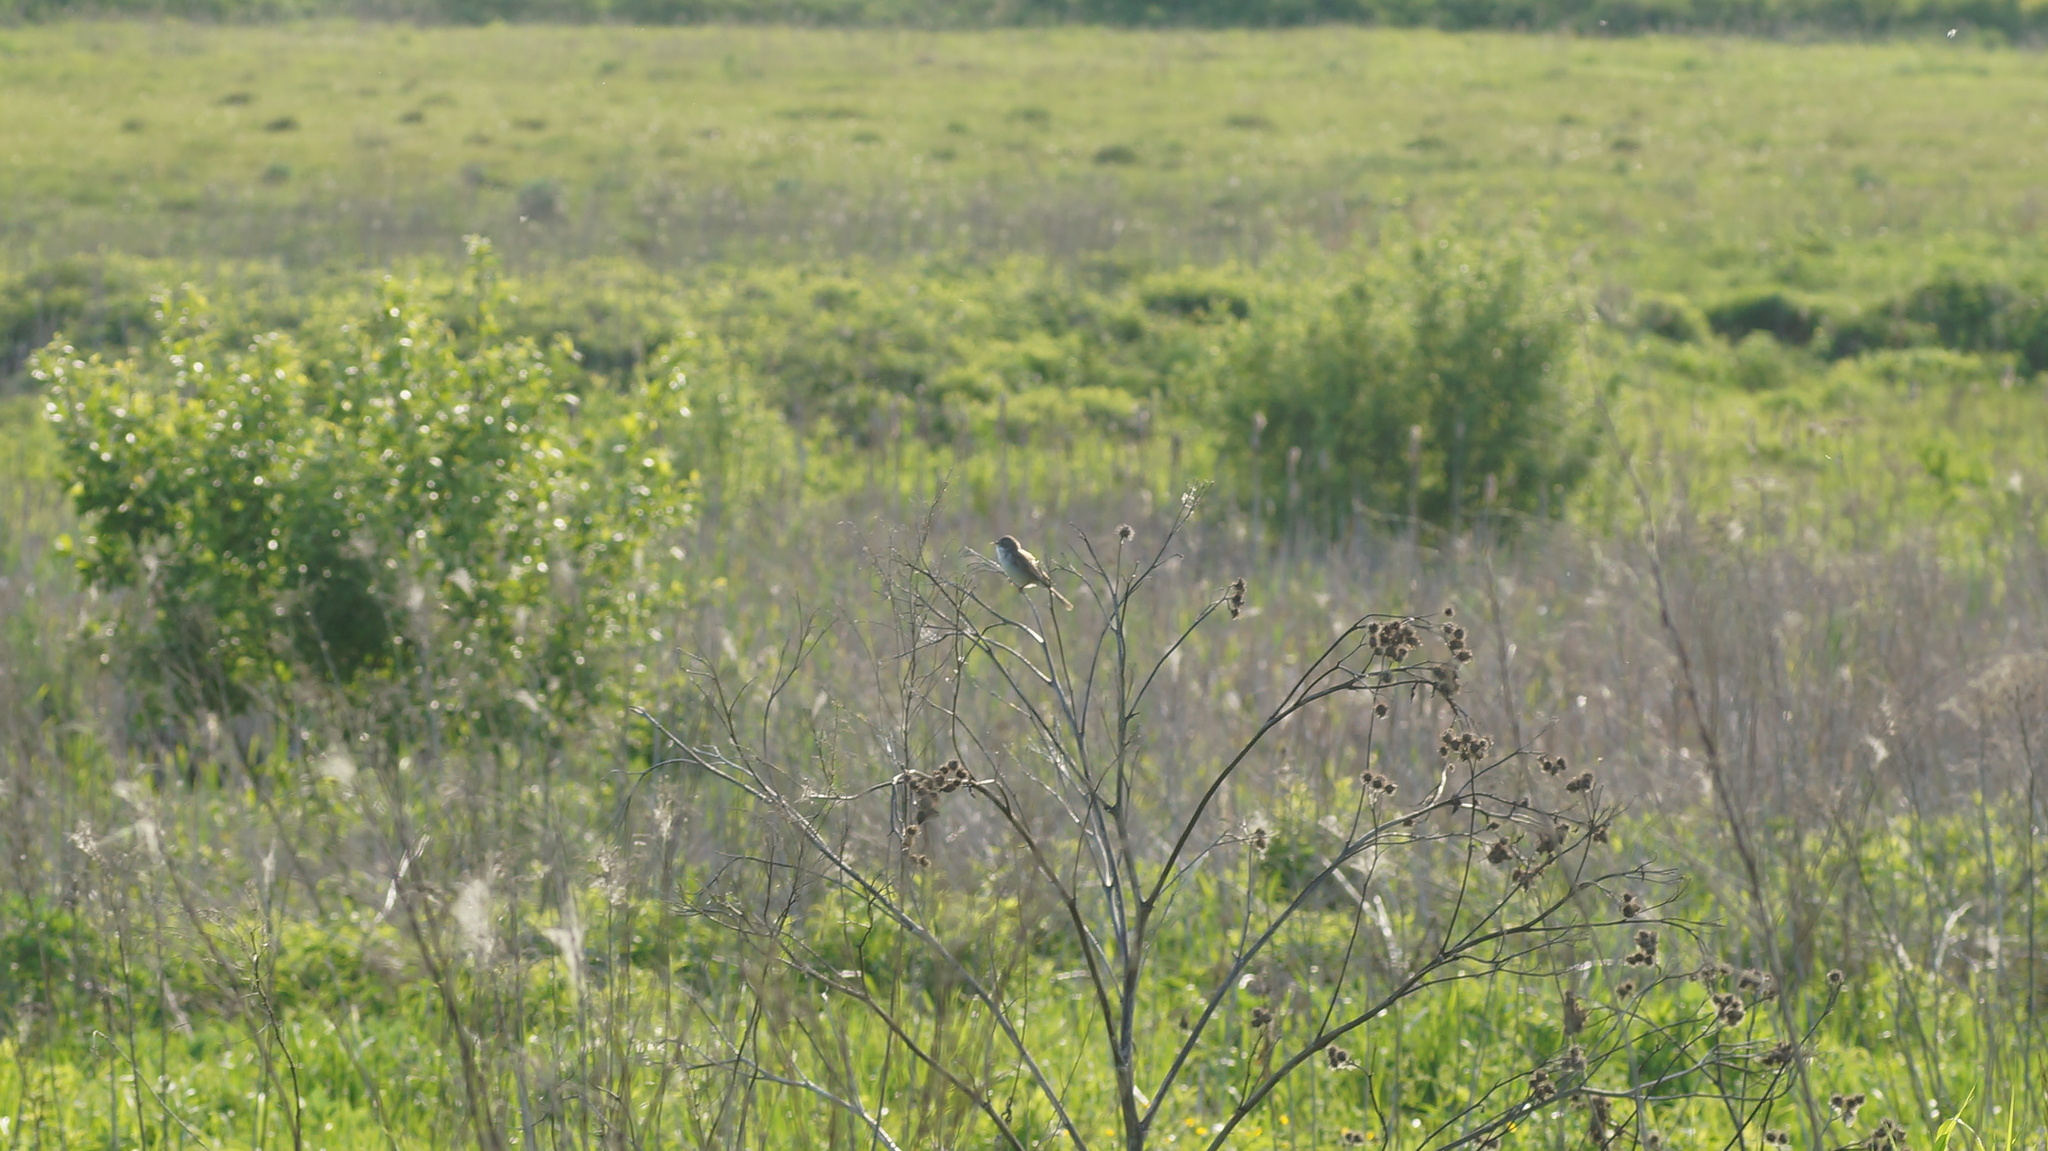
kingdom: Animalia
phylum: Chordata
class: Aves
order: Passeriformes
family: Sylviidae
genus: Sylvia
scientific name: Sylvia communis
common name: Common whitethroat
